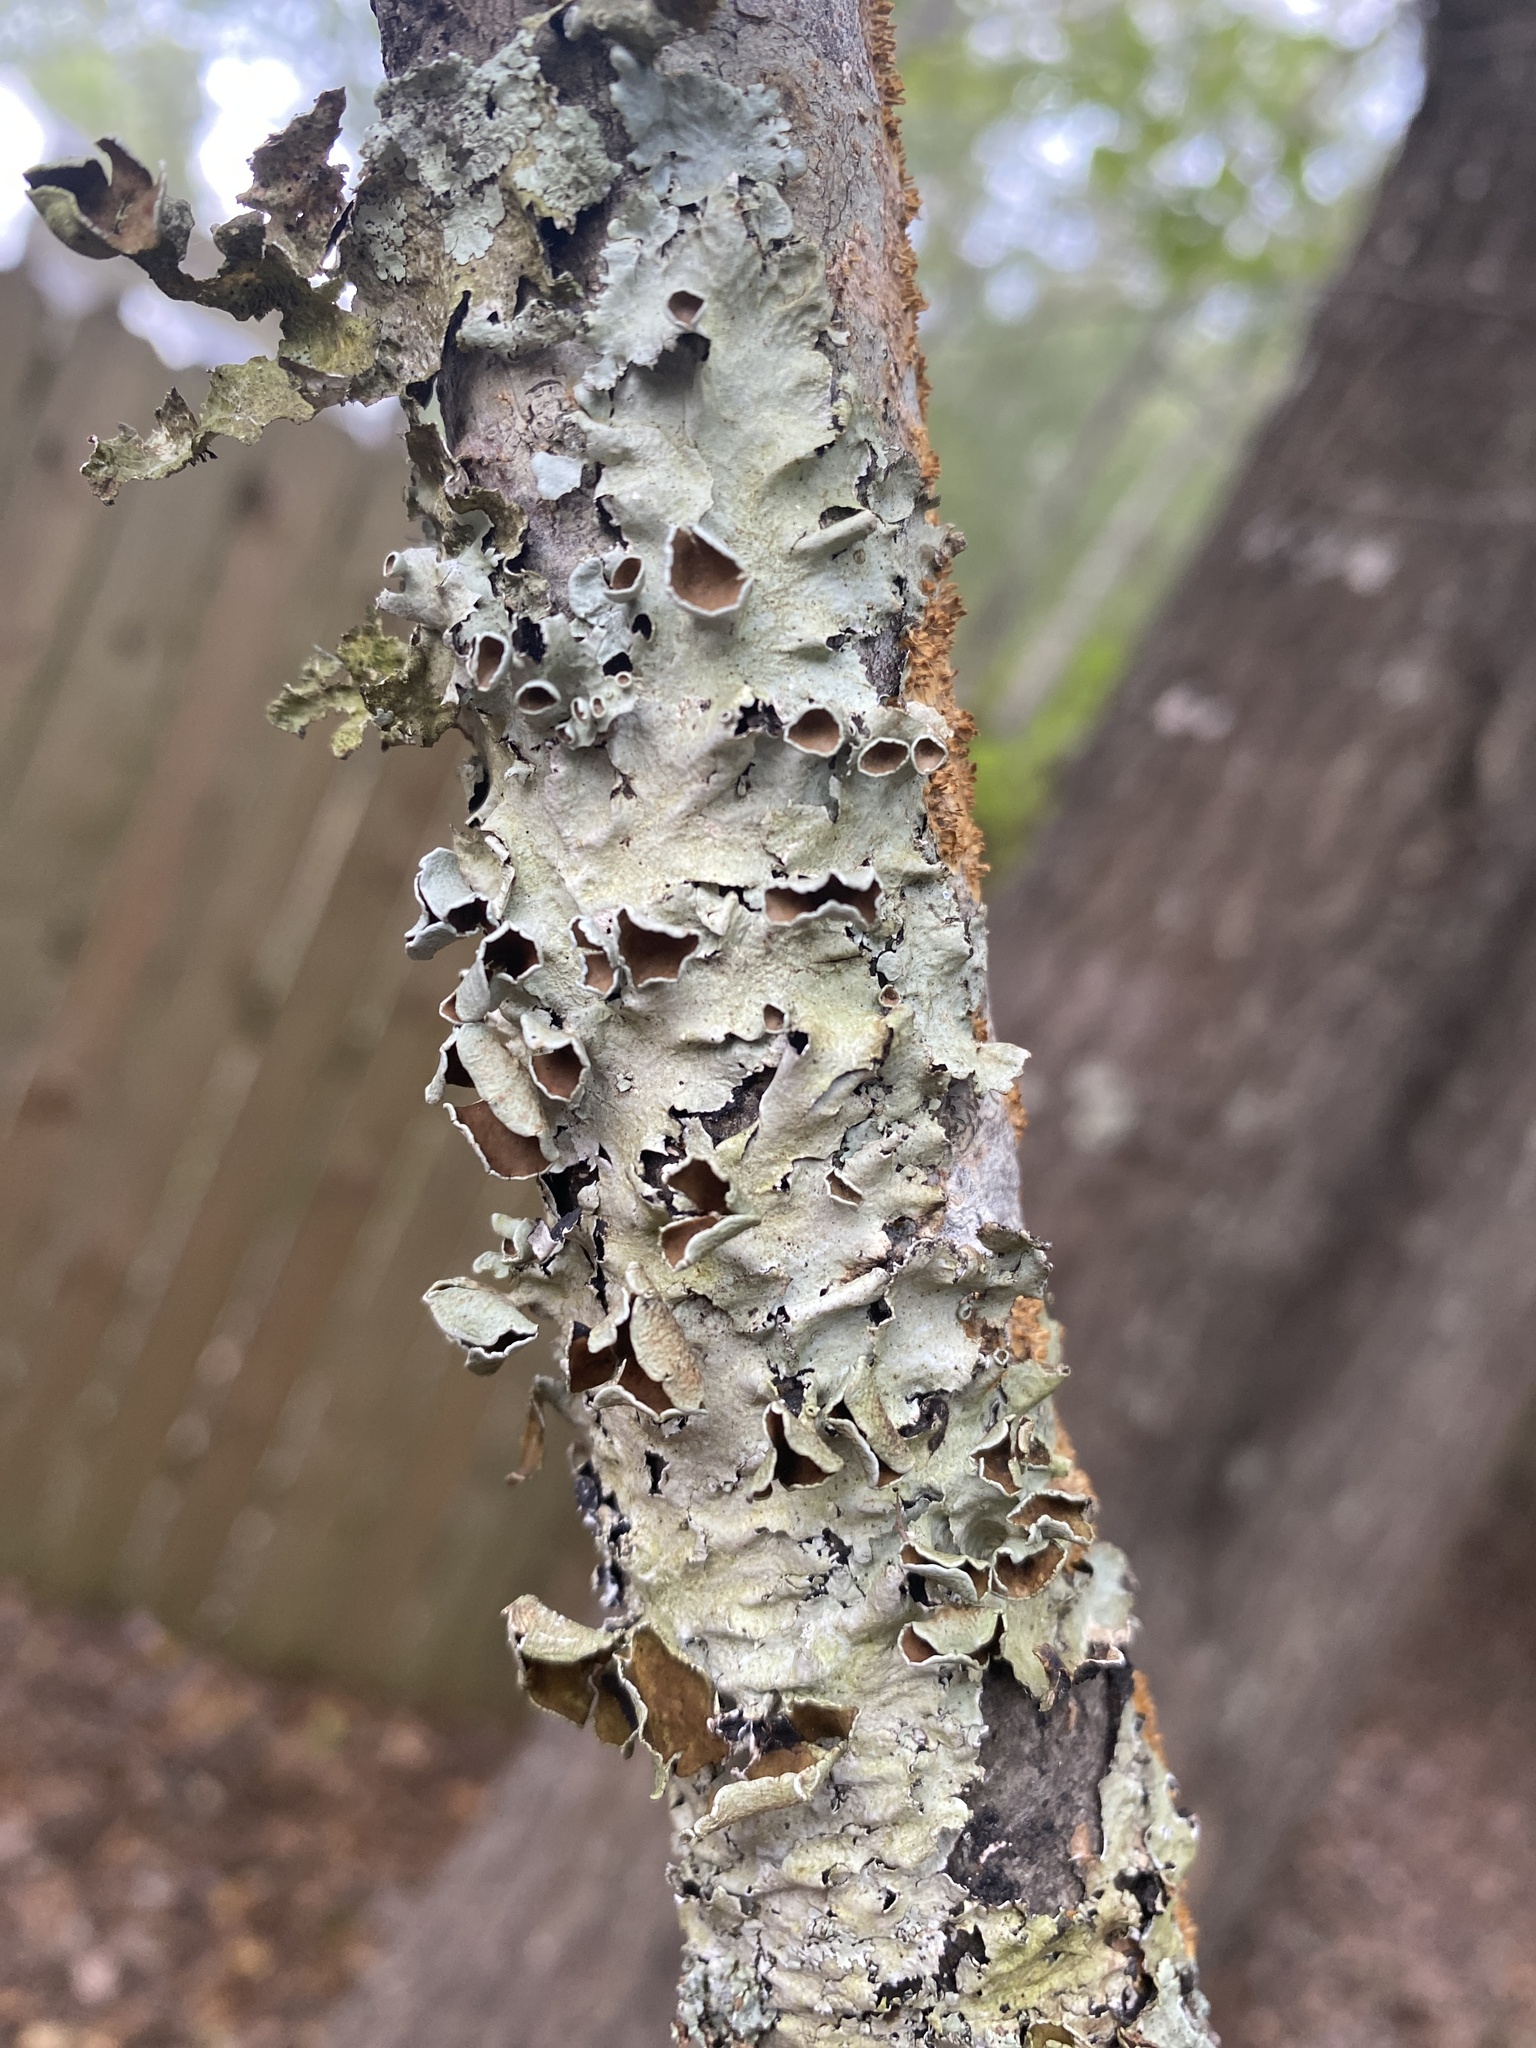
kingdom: Fungi
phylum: Ascomycota
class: Lecanoromycetes
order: Lecanorales
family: Parmeliaceae
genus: Parmotrema
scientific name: Parmotrema submarginale
